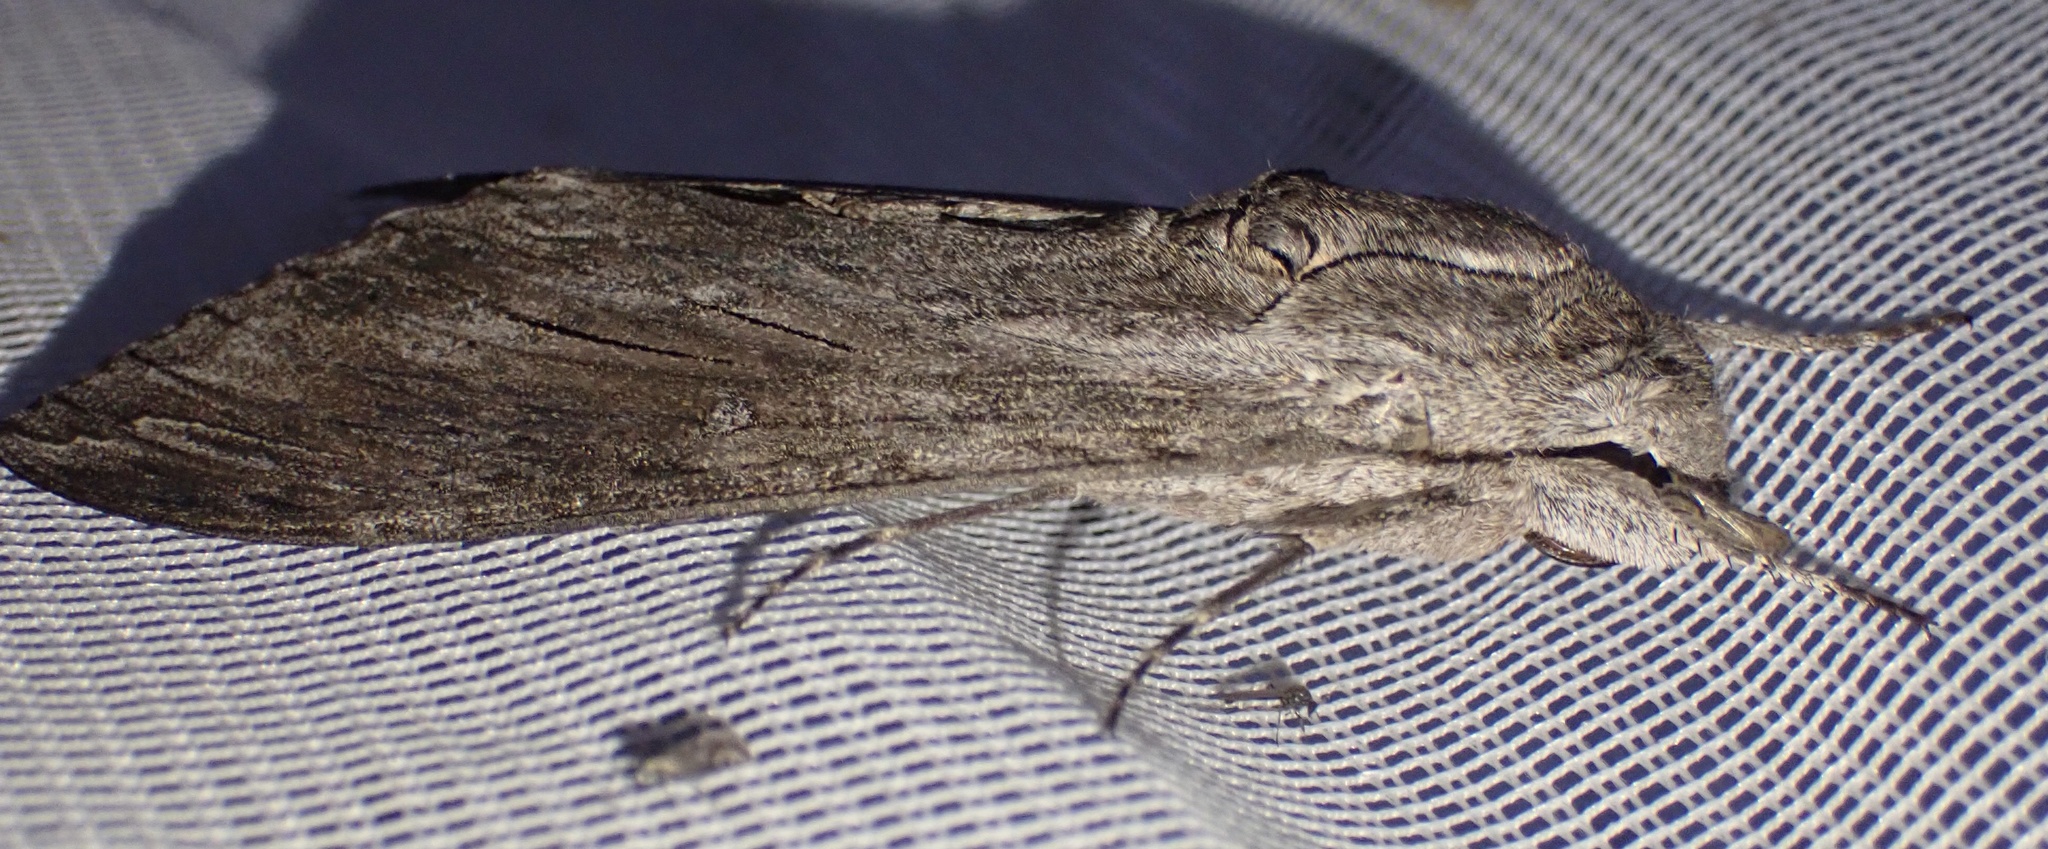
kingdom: Animalia
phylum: Arthropoda
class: Insecta
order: Lepidoptera
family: Sphingidae
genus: Agrius
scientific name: Agrius convolvuli
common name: Convolvulus hawkmoth
